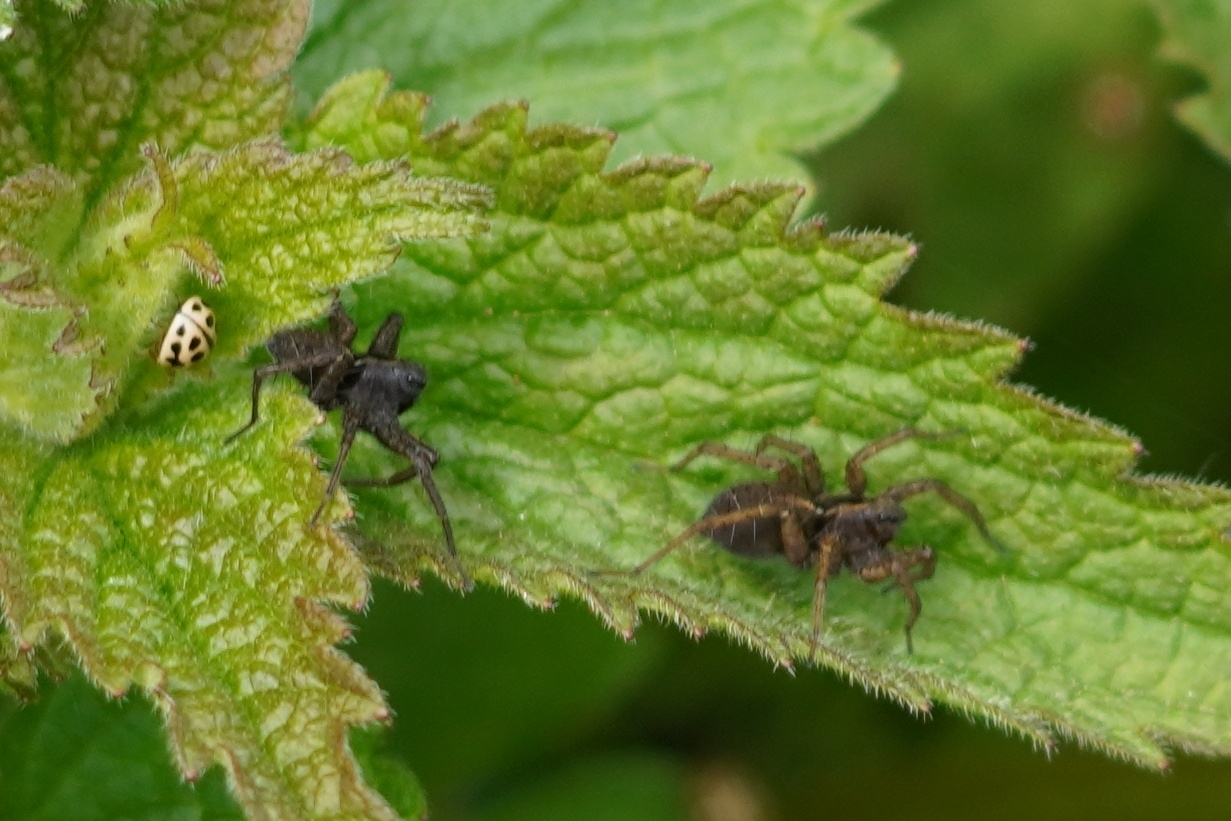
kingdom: Animalia
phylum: Arthropoda
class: Insecta
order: Coleoptera
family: Coccinellidae
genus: Tytthaspis
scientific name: Tytthaspis sedecimpunctata
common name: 16-spot ladybird
